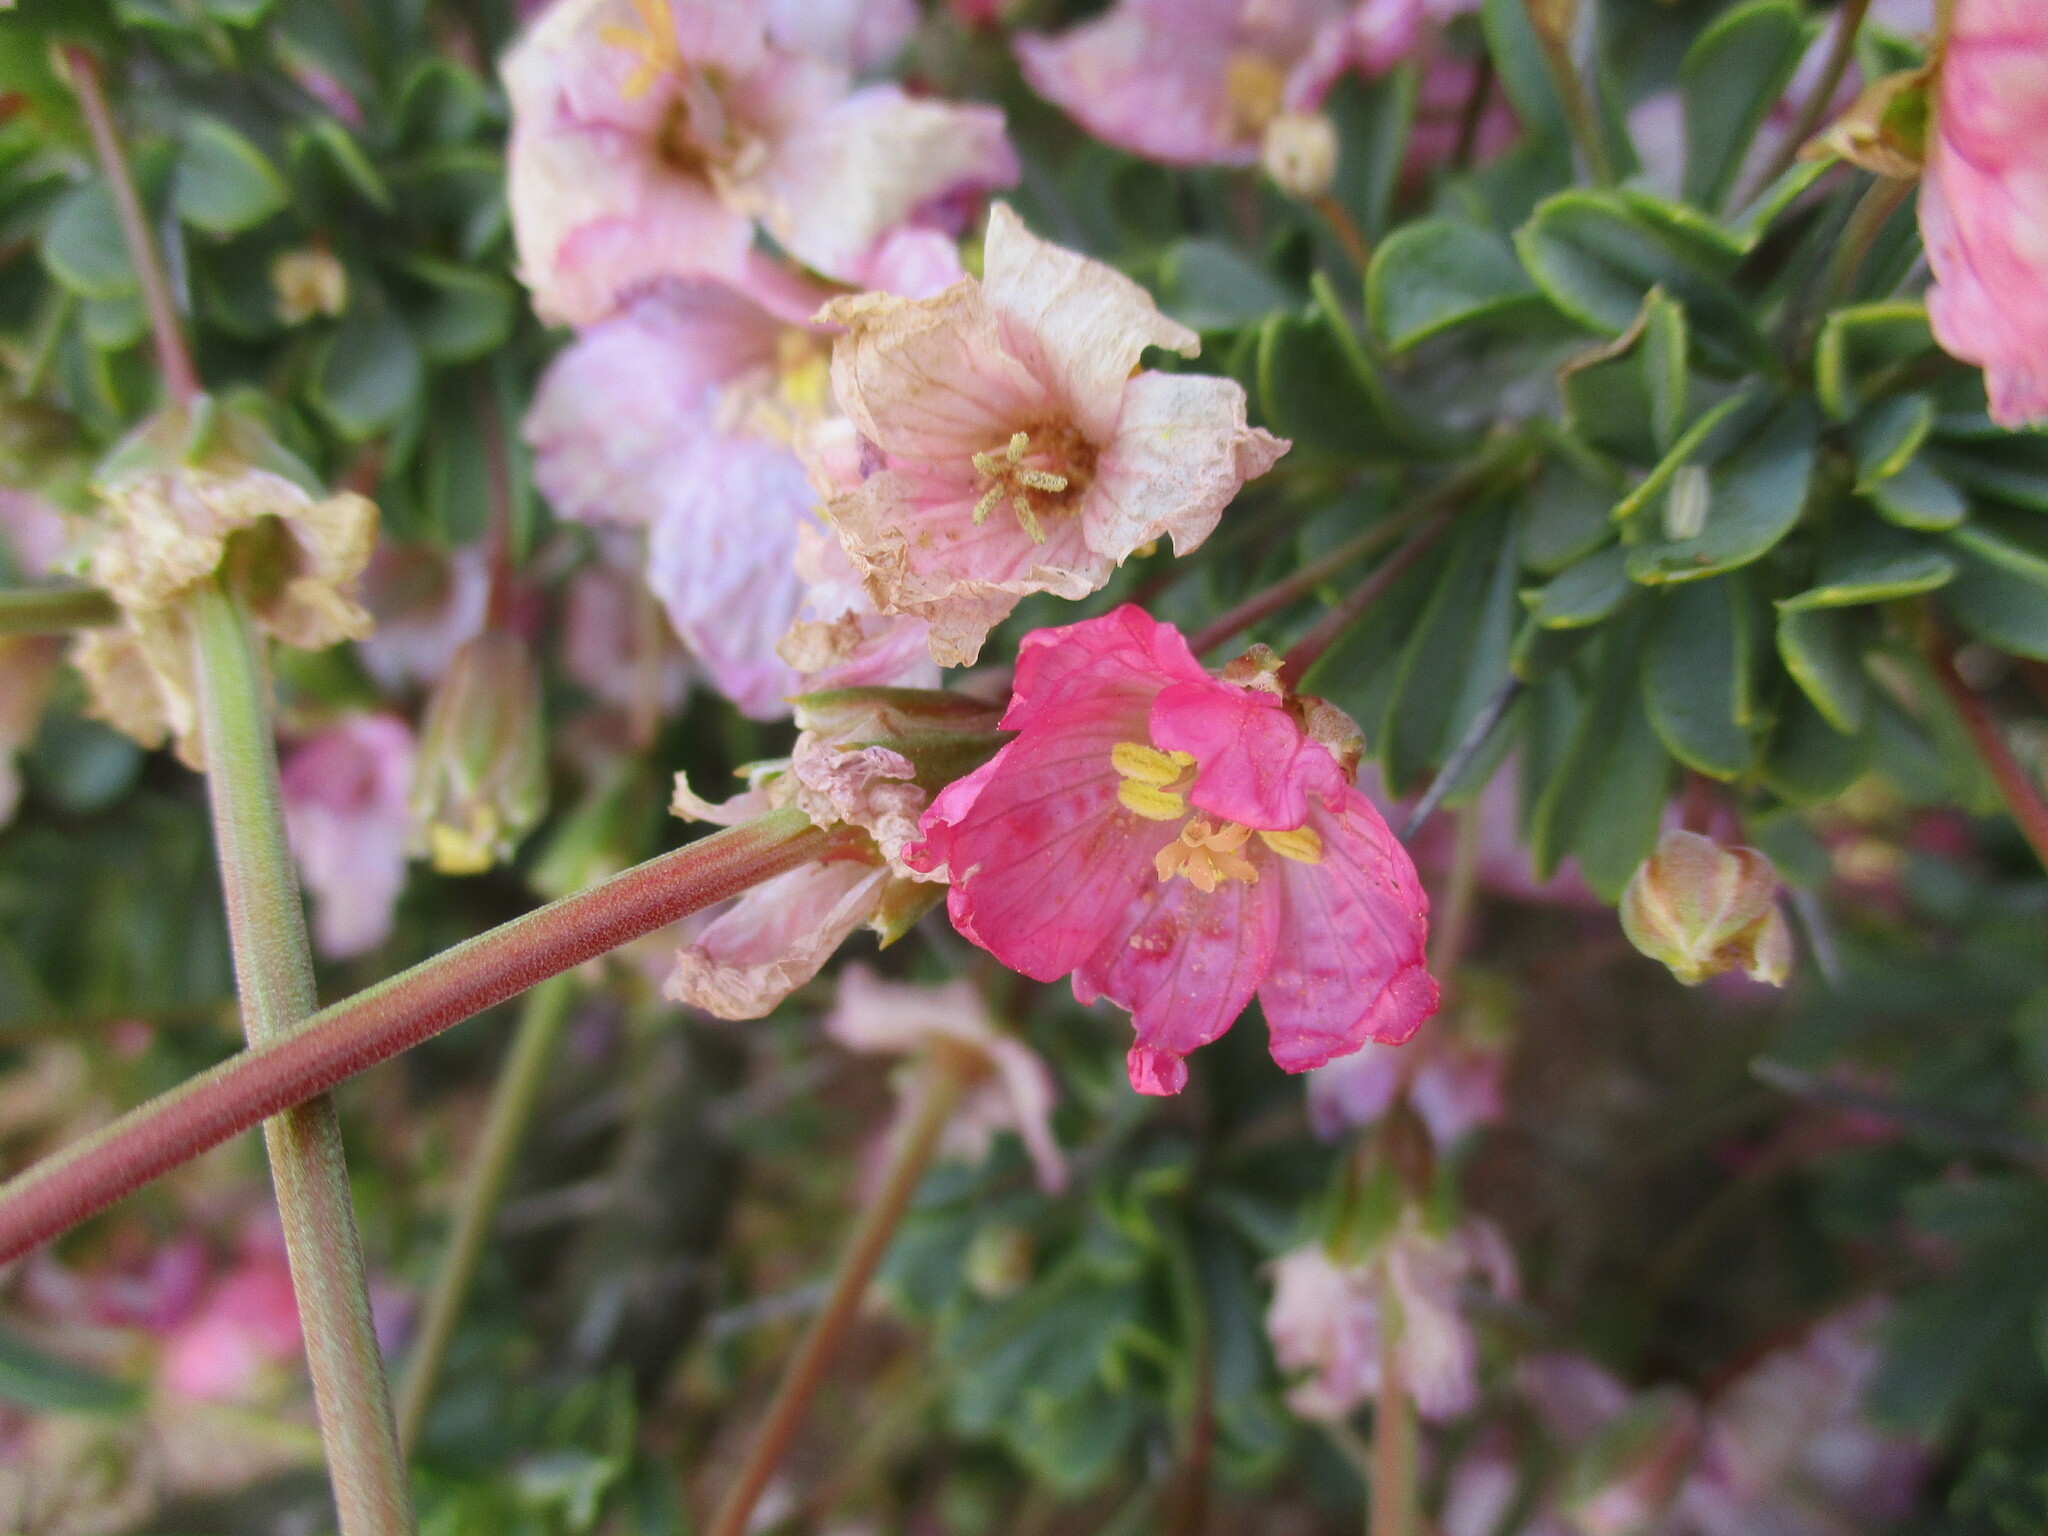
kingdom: Plantae
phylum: Tracheophyta
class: Magnoliopsida
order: Geraniales
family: Geraniaceae
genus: Monsonia
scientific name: Monsonia patersonii
